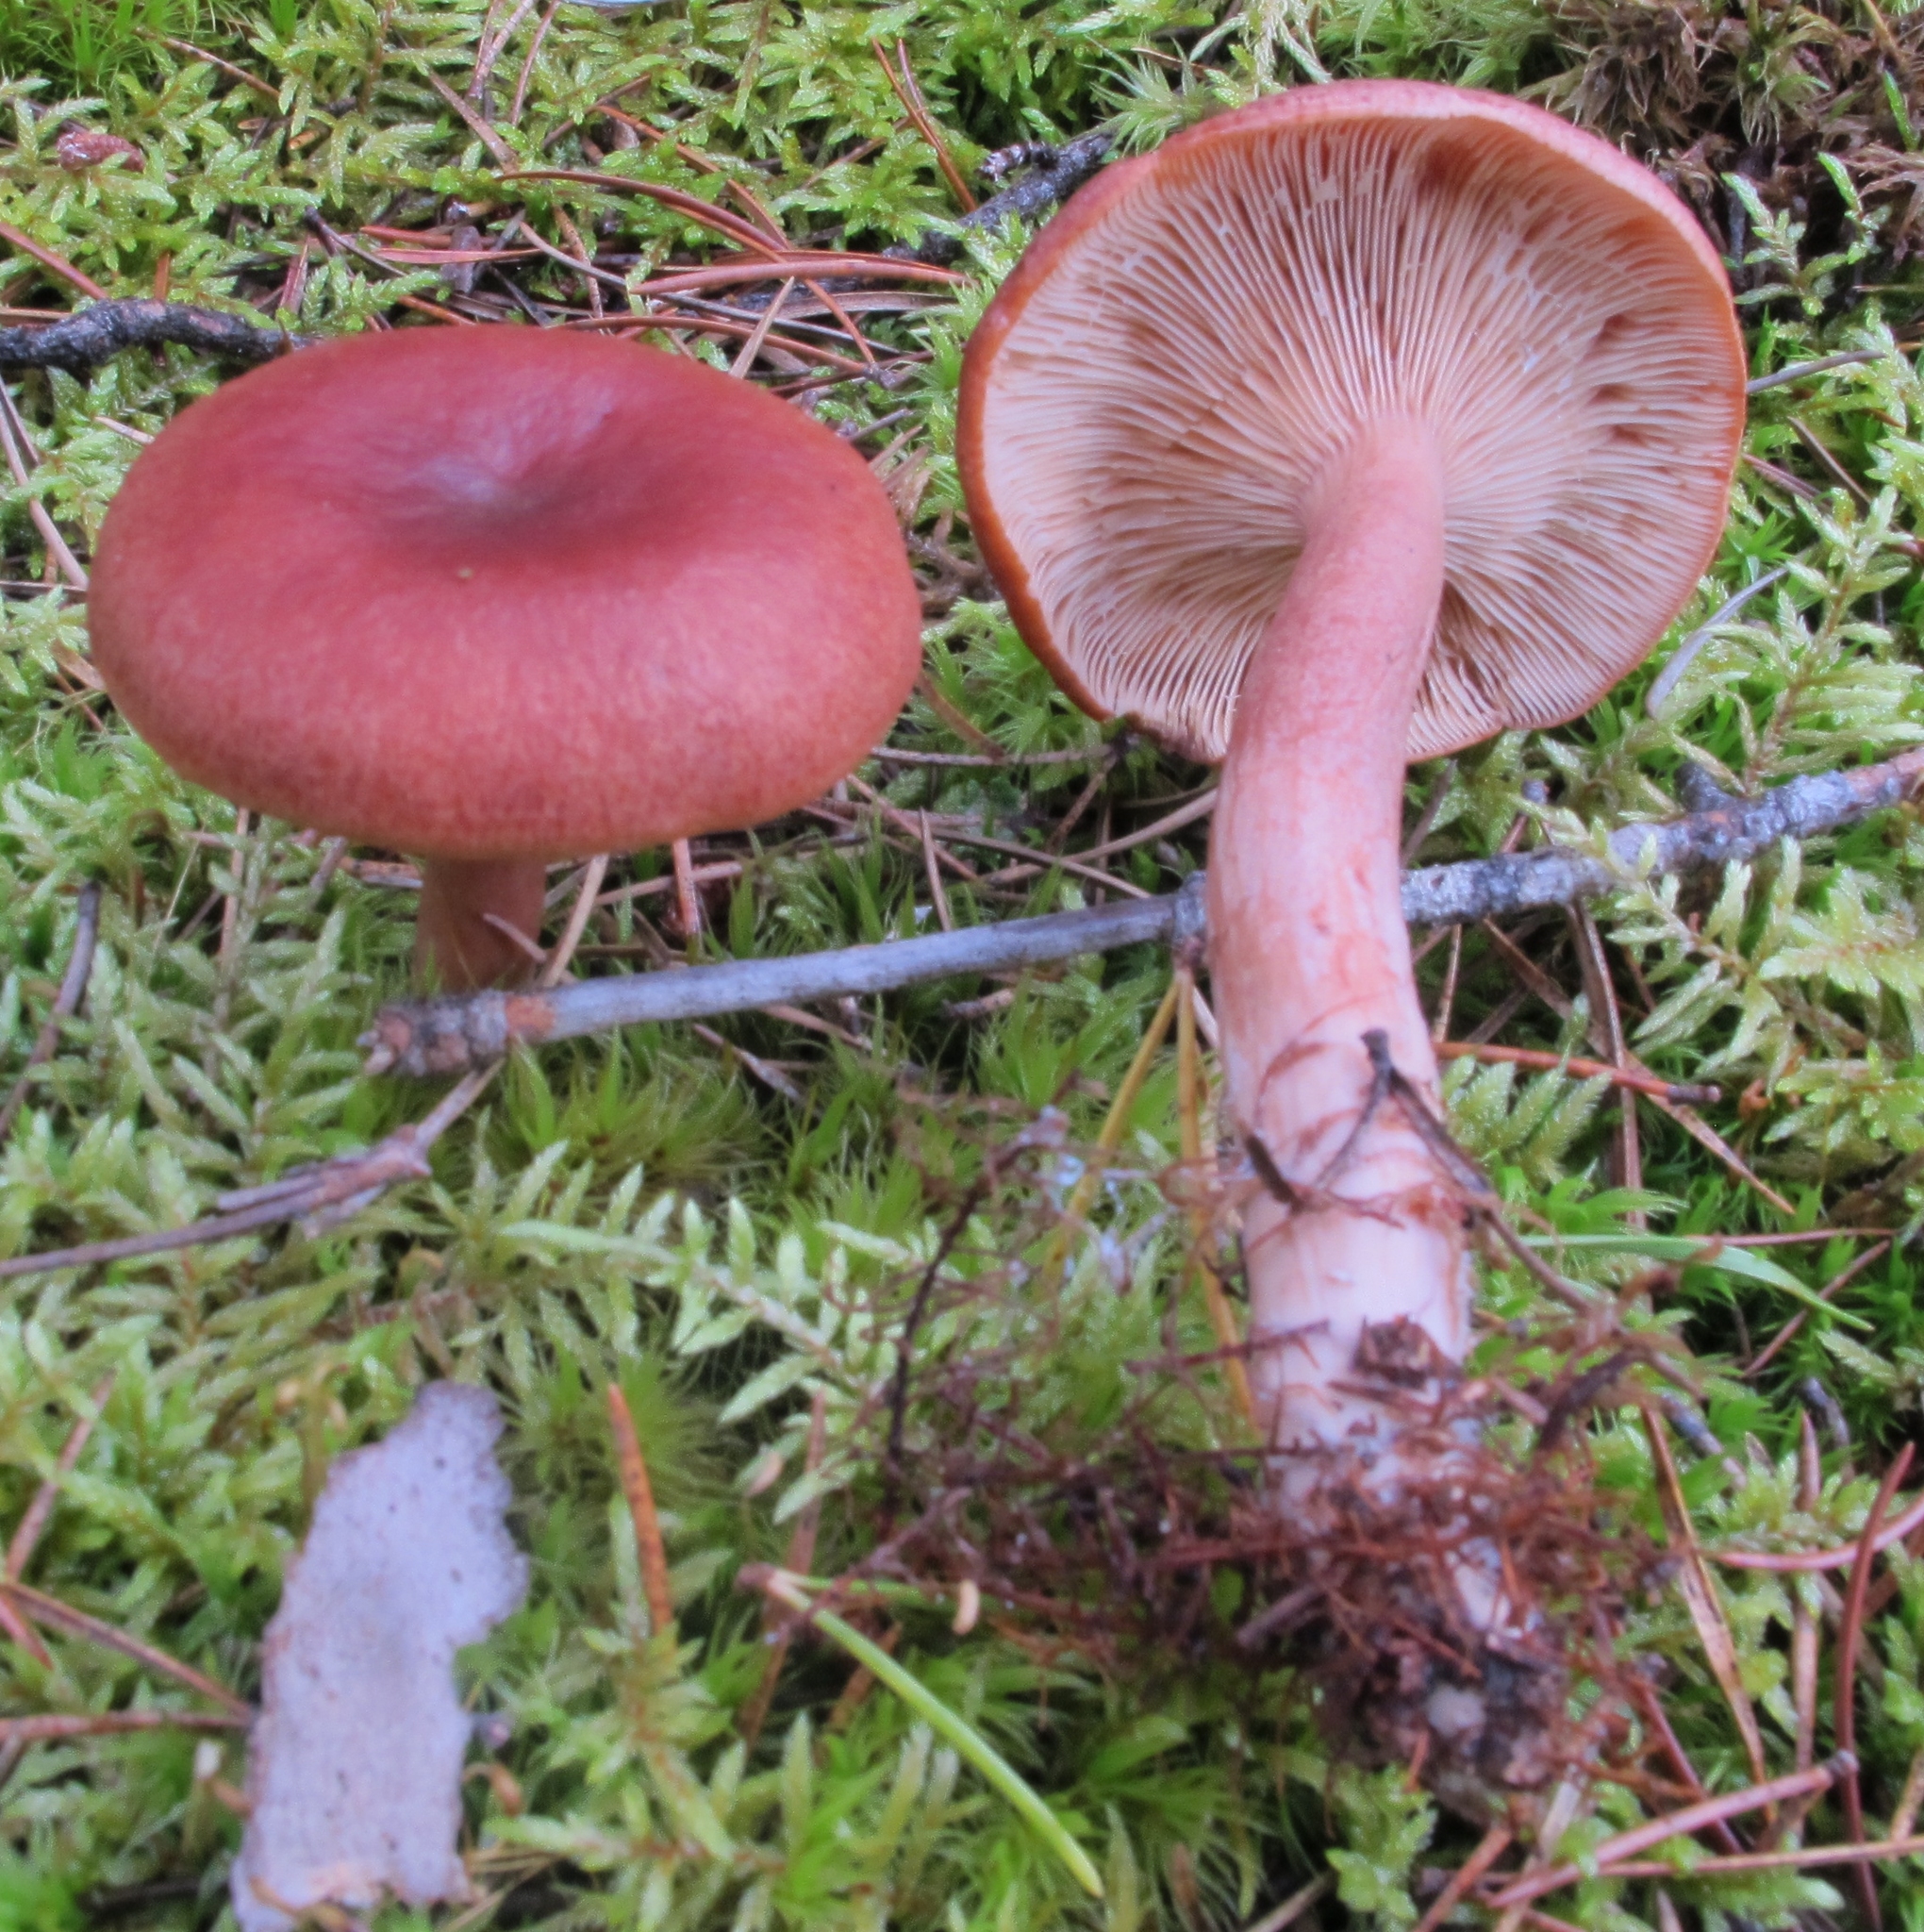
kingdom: Fungi
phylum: Basidiomycota
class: Agaricomycetes
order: Russulales
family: Russulaceae
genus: Lactarius
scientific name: Lactarius rufus
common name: Rufous milk-cap
